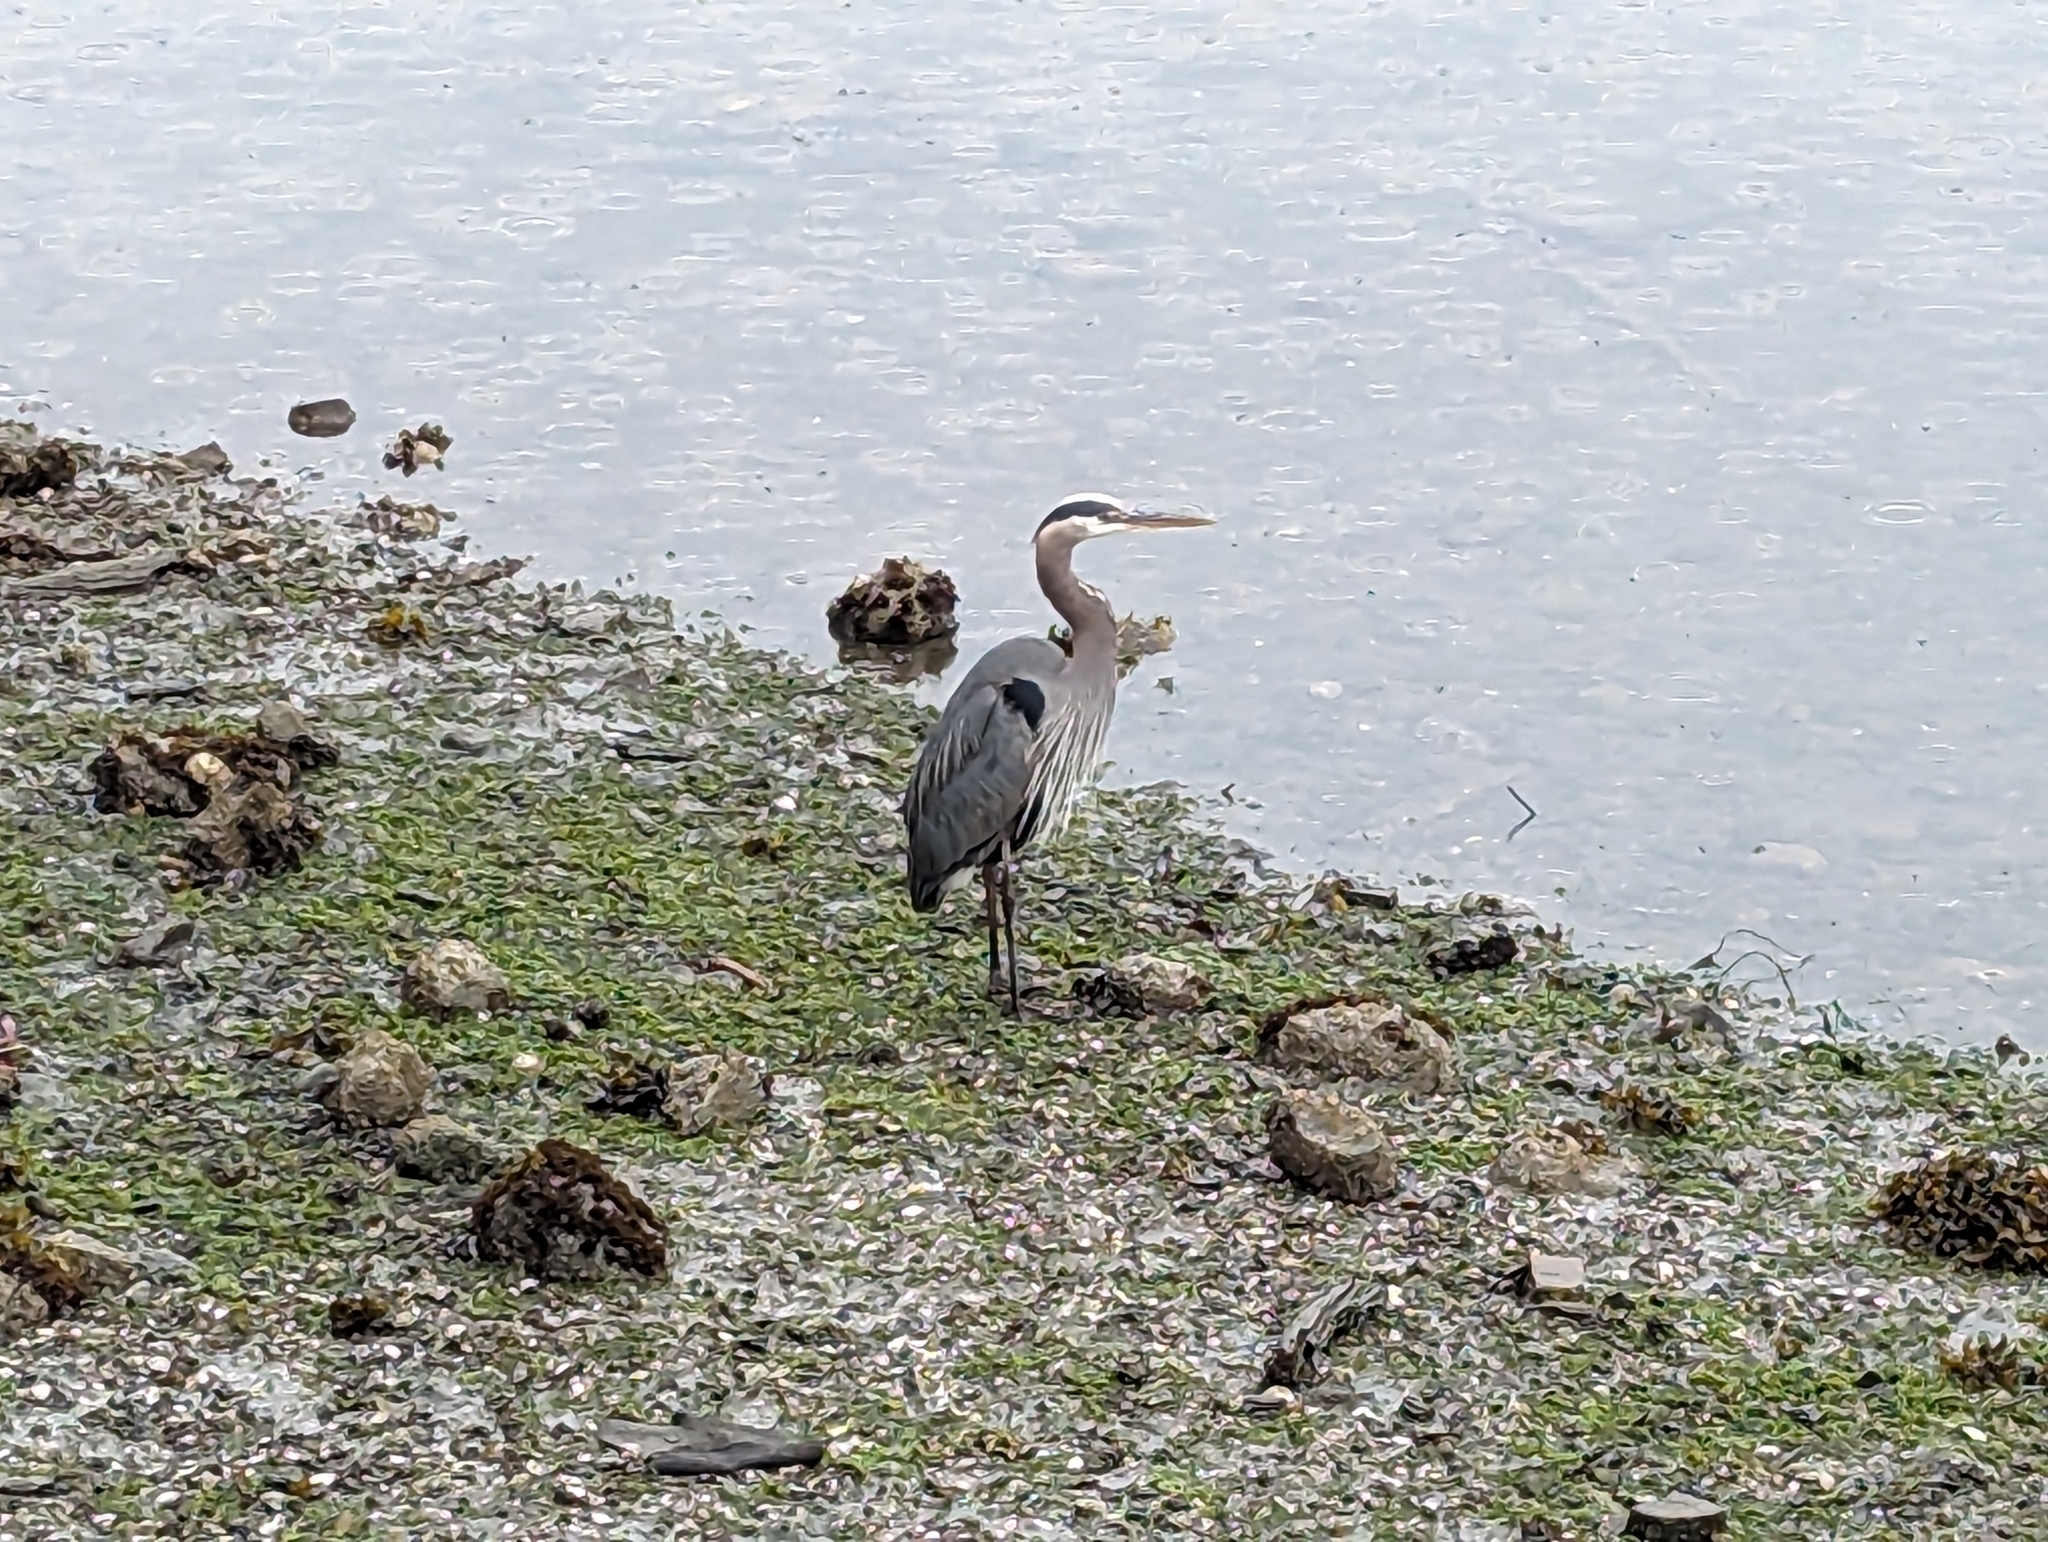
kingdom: Animalia
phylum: Chordata
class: Aves
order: Pelecaniformes
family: Ardeidae
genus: Ardea
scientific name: Ardea herodias
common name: Great blue heron
